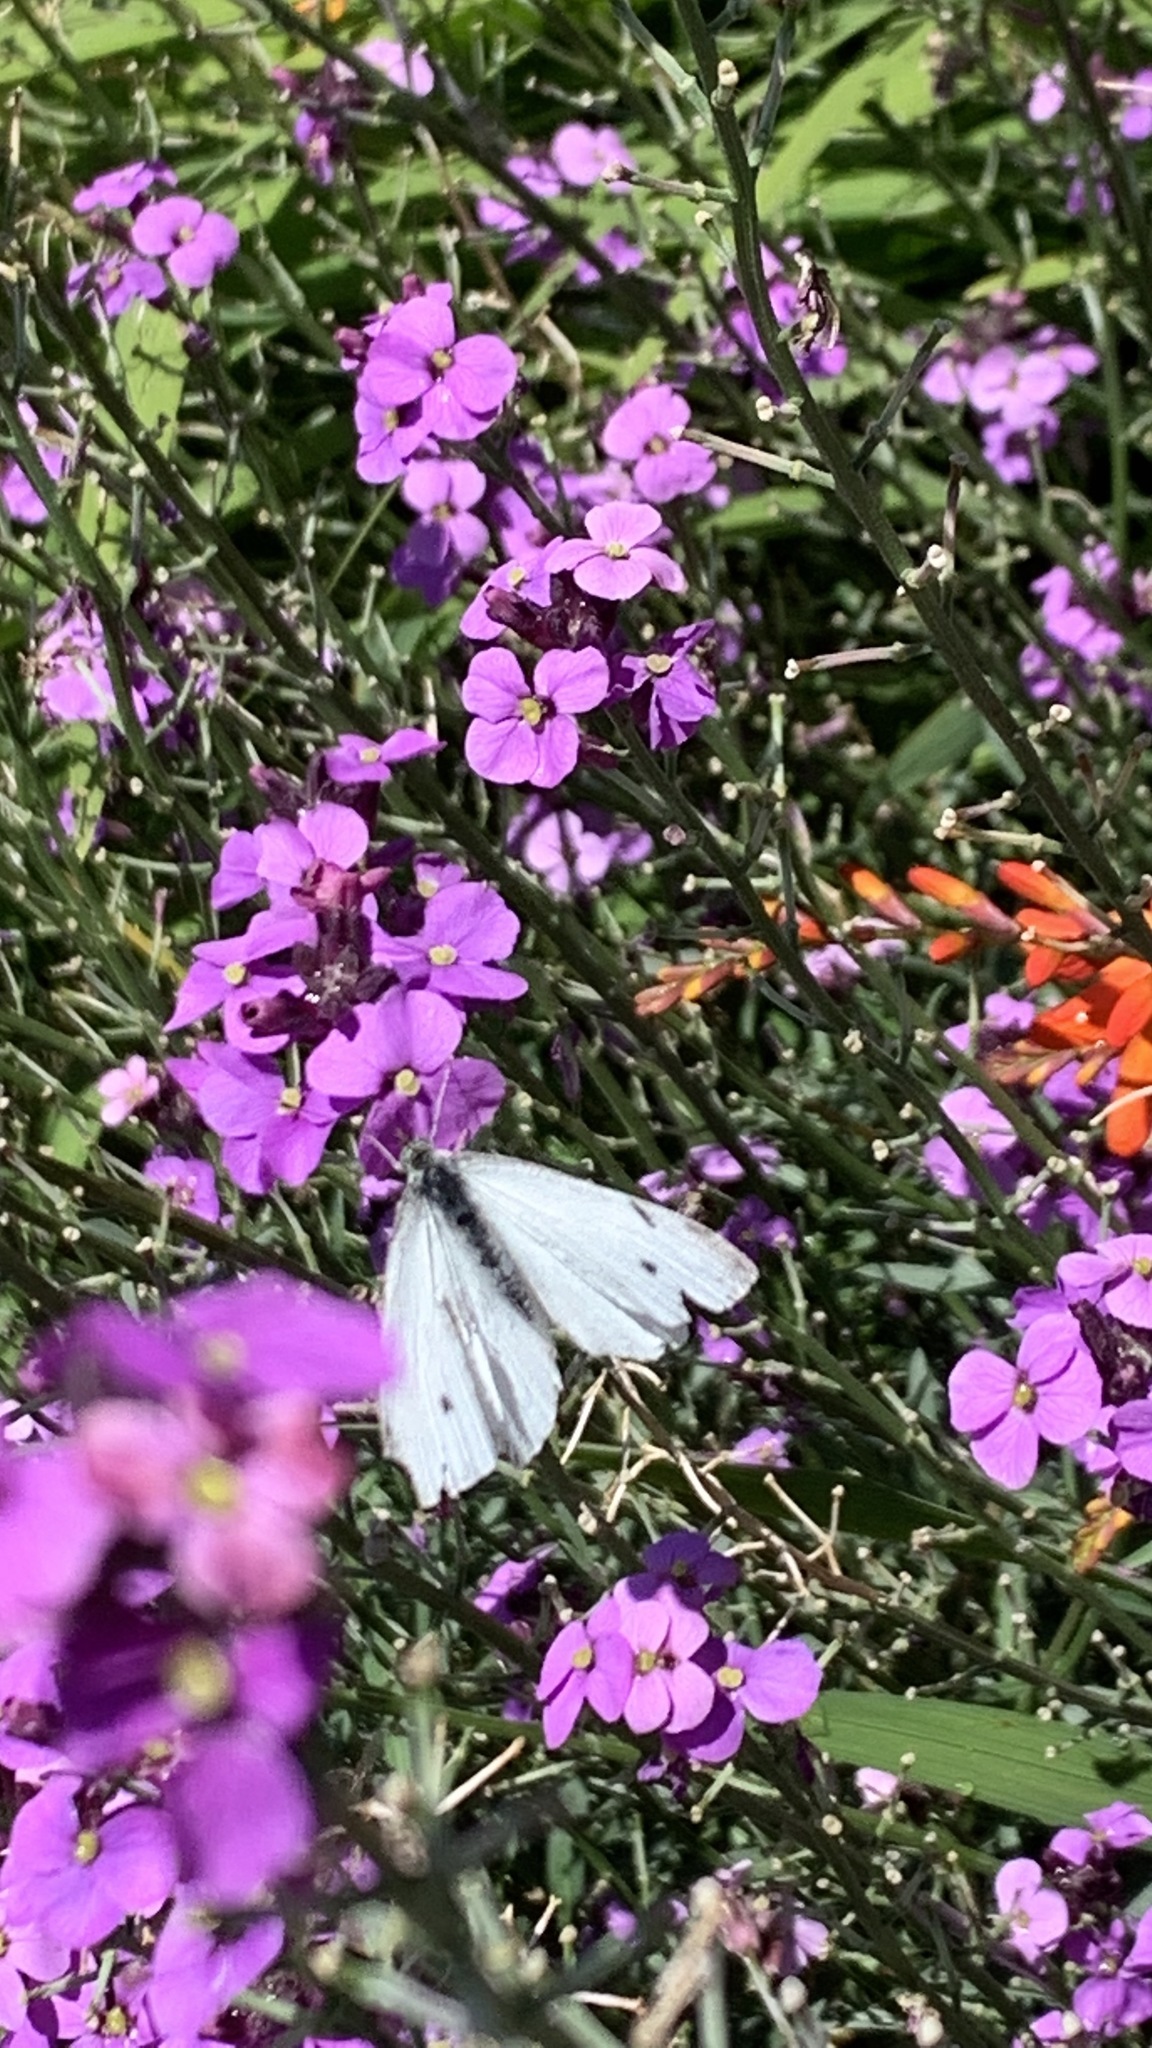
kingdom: Animalia
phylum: Arthropoda
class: Insecta
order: Lepidoptera
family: Pieridae
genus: Pieris
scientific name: Pieris rapae
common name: Small white
